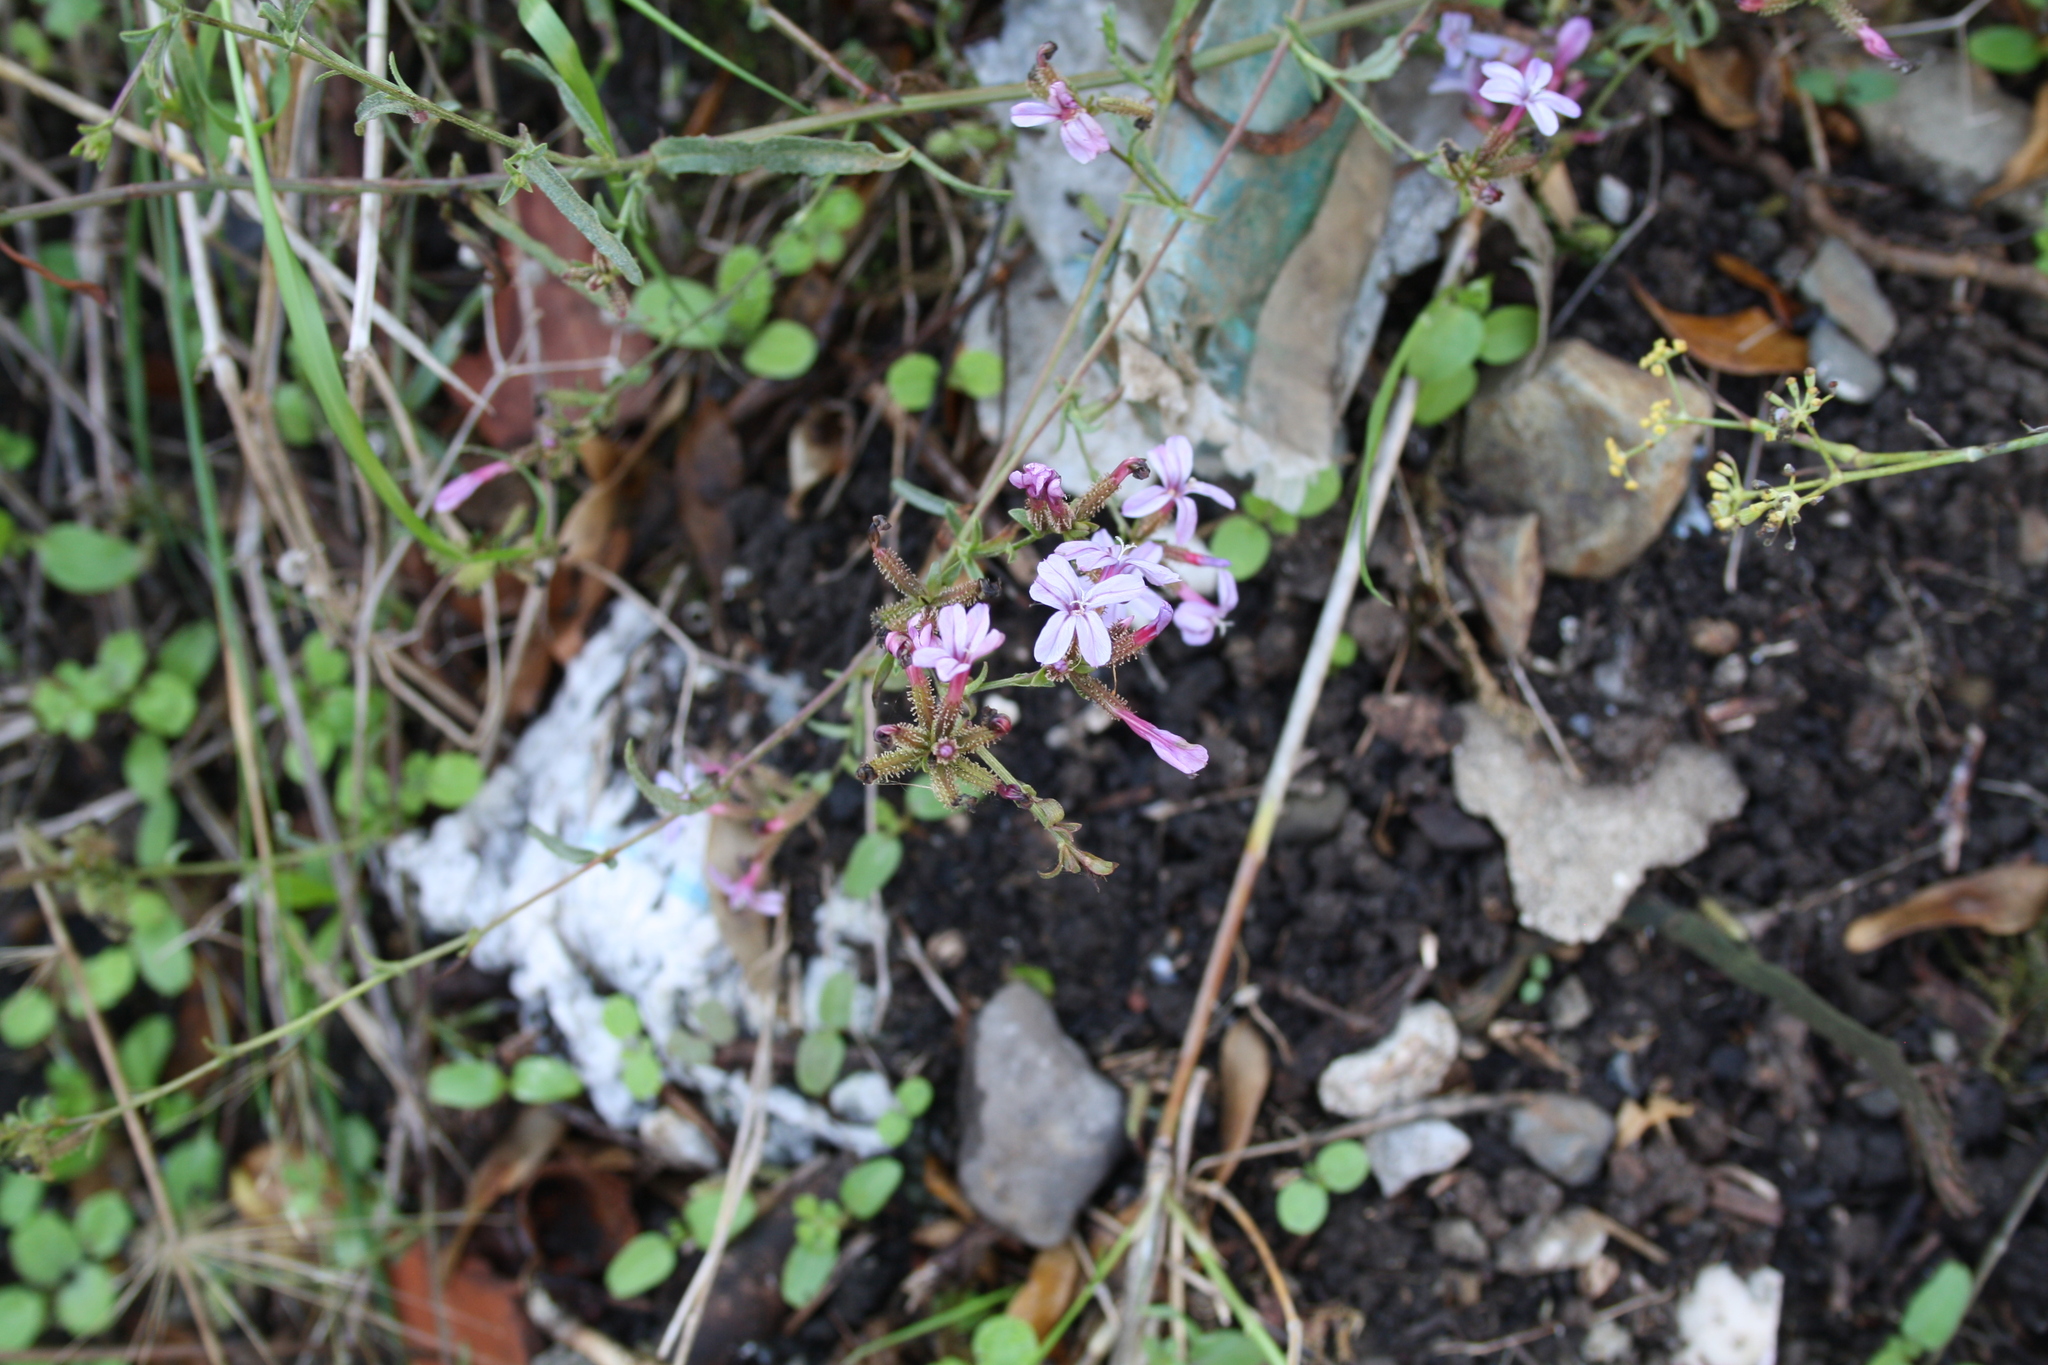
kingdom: Plantae
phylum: Tracheophyta
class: Magnoliopsida
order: Caryophyllales
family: Plumbaginaceae
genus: Plumbago
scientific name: Plumbago europaea
